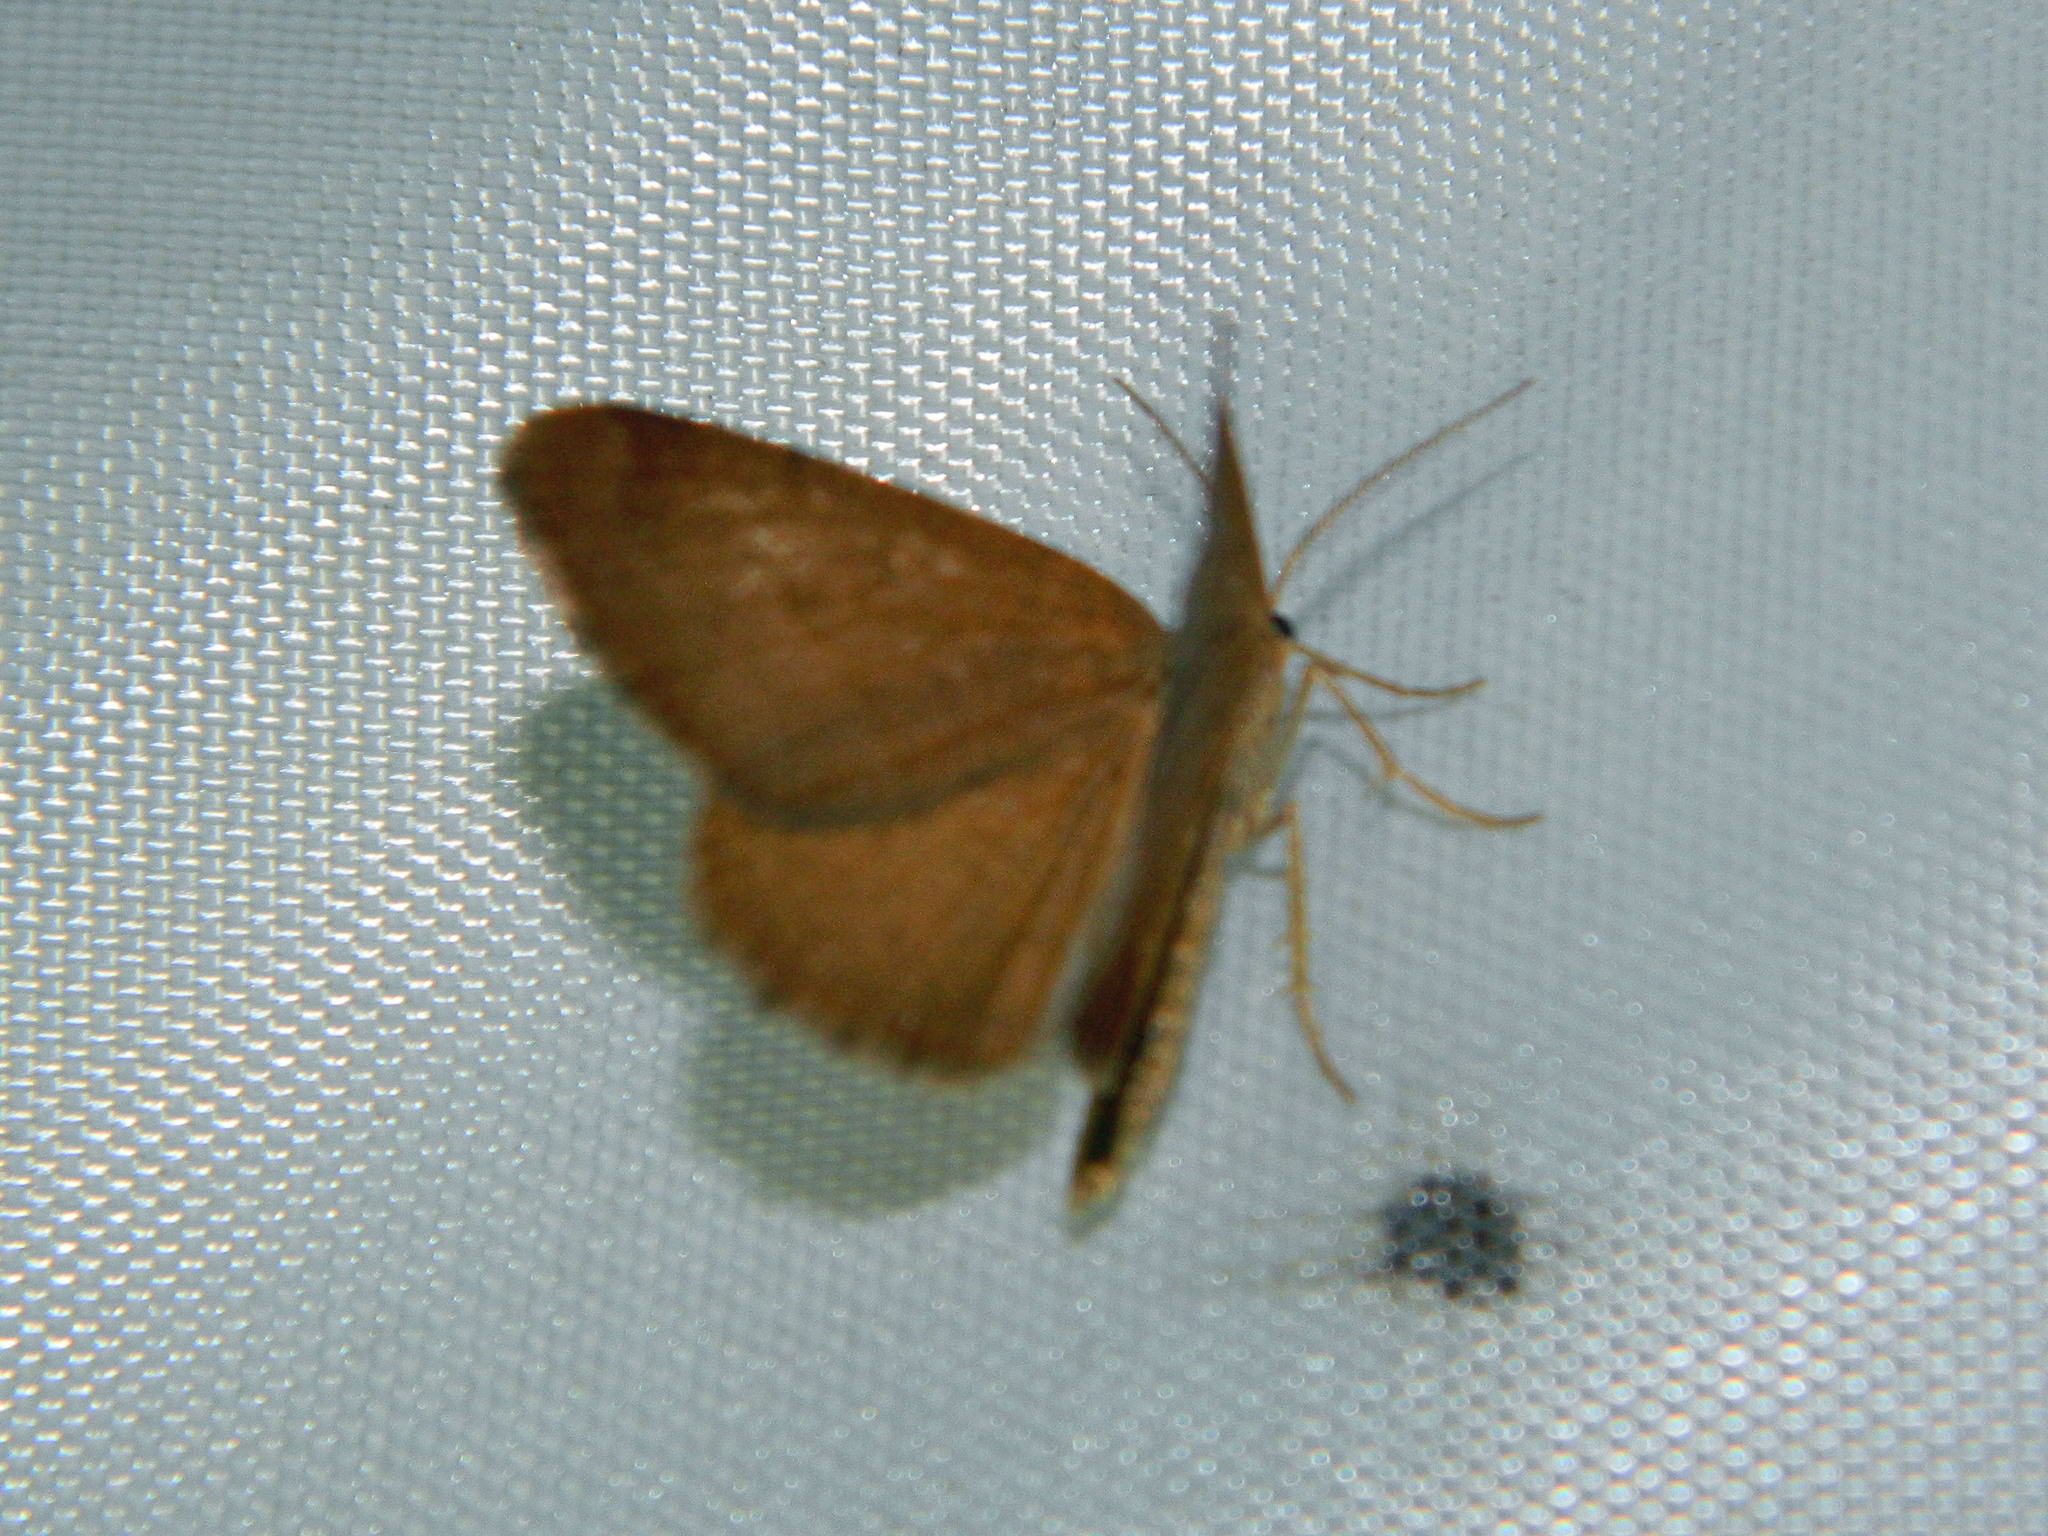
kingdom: Animalia
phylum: Arthropoda
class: Insecta
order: Lepidoptera
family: Geometridae
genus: Macaria
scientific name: Macaria brunneata
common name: Rannoch looper
